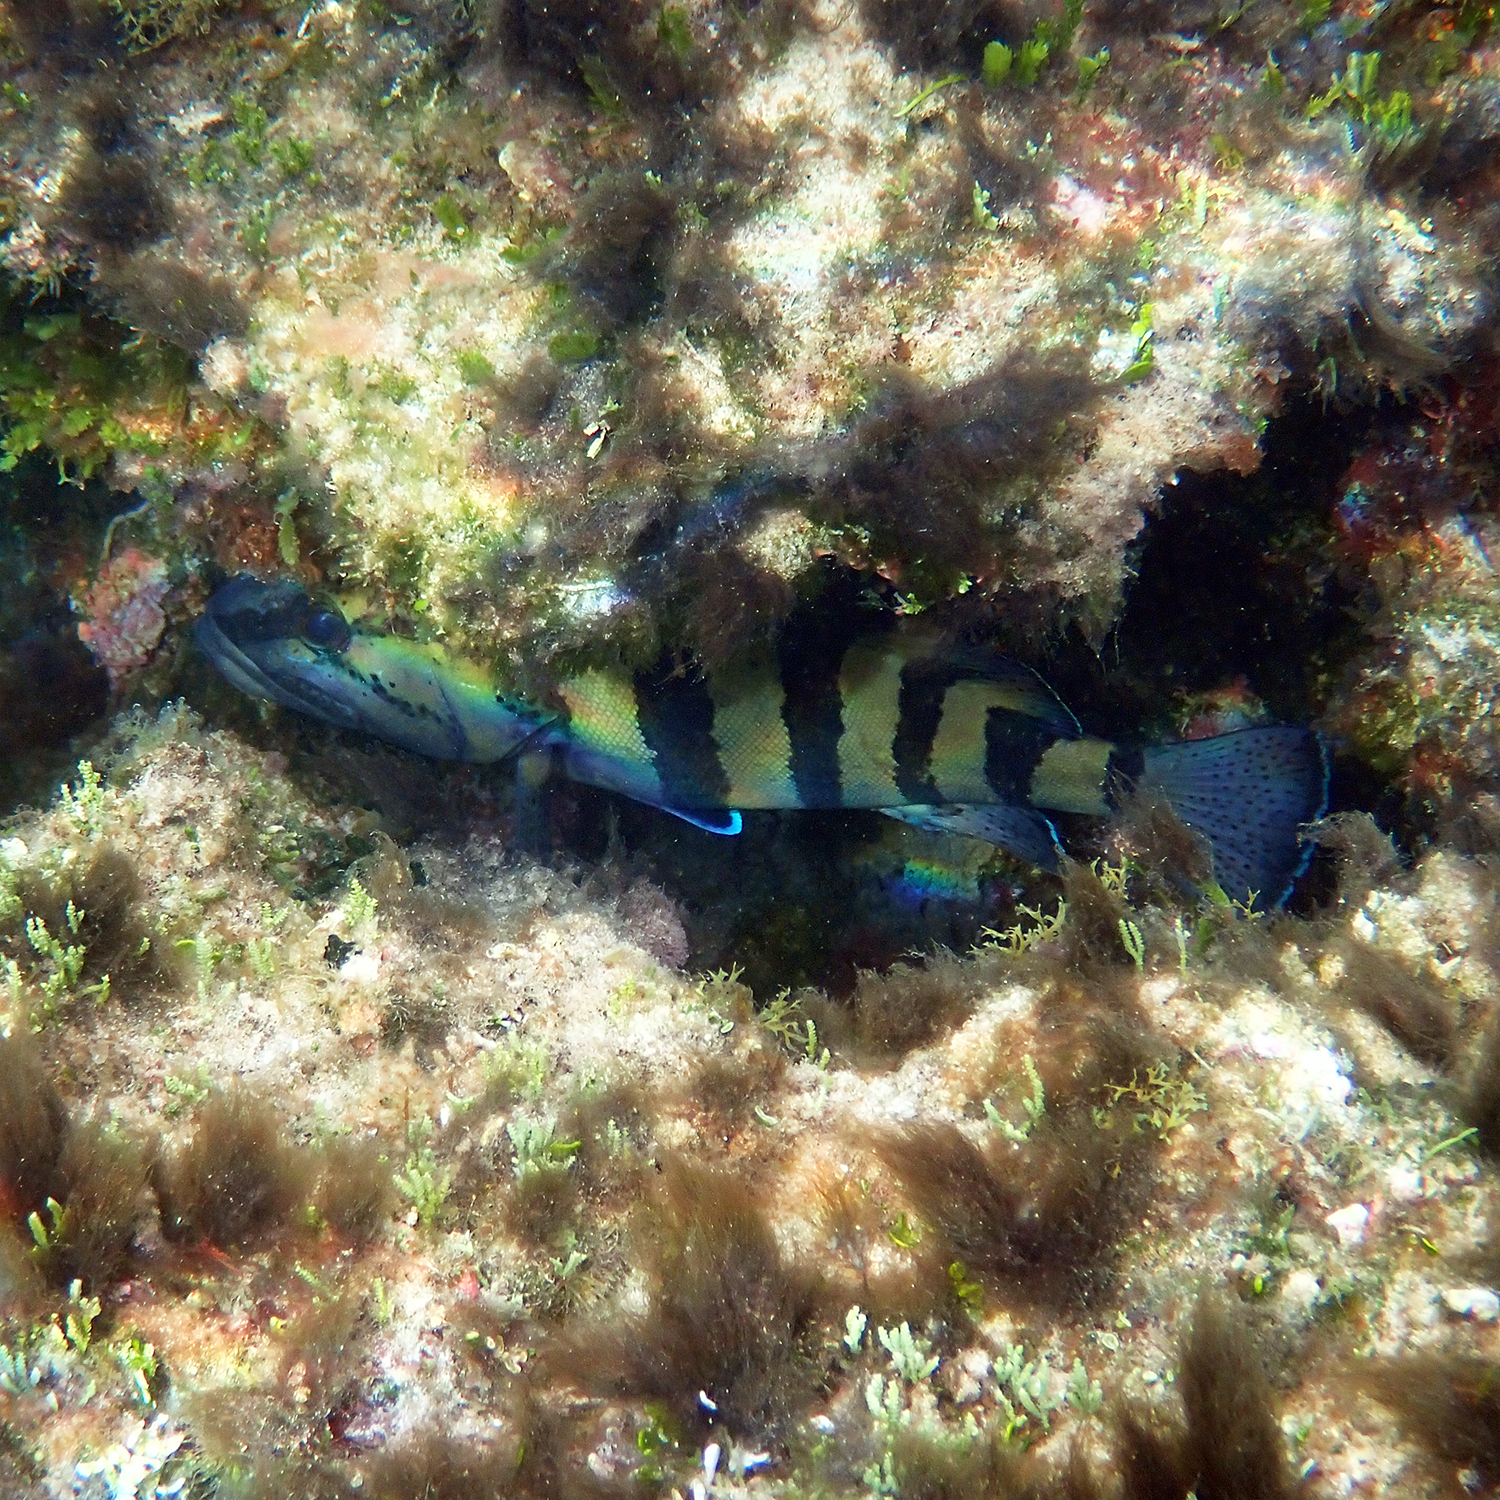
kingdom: Animalia
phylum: Chordata
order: Perciformes
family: Serranidae
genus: Acanthistius
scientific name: Acanthistius cinctus
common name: Girdled rock cod
